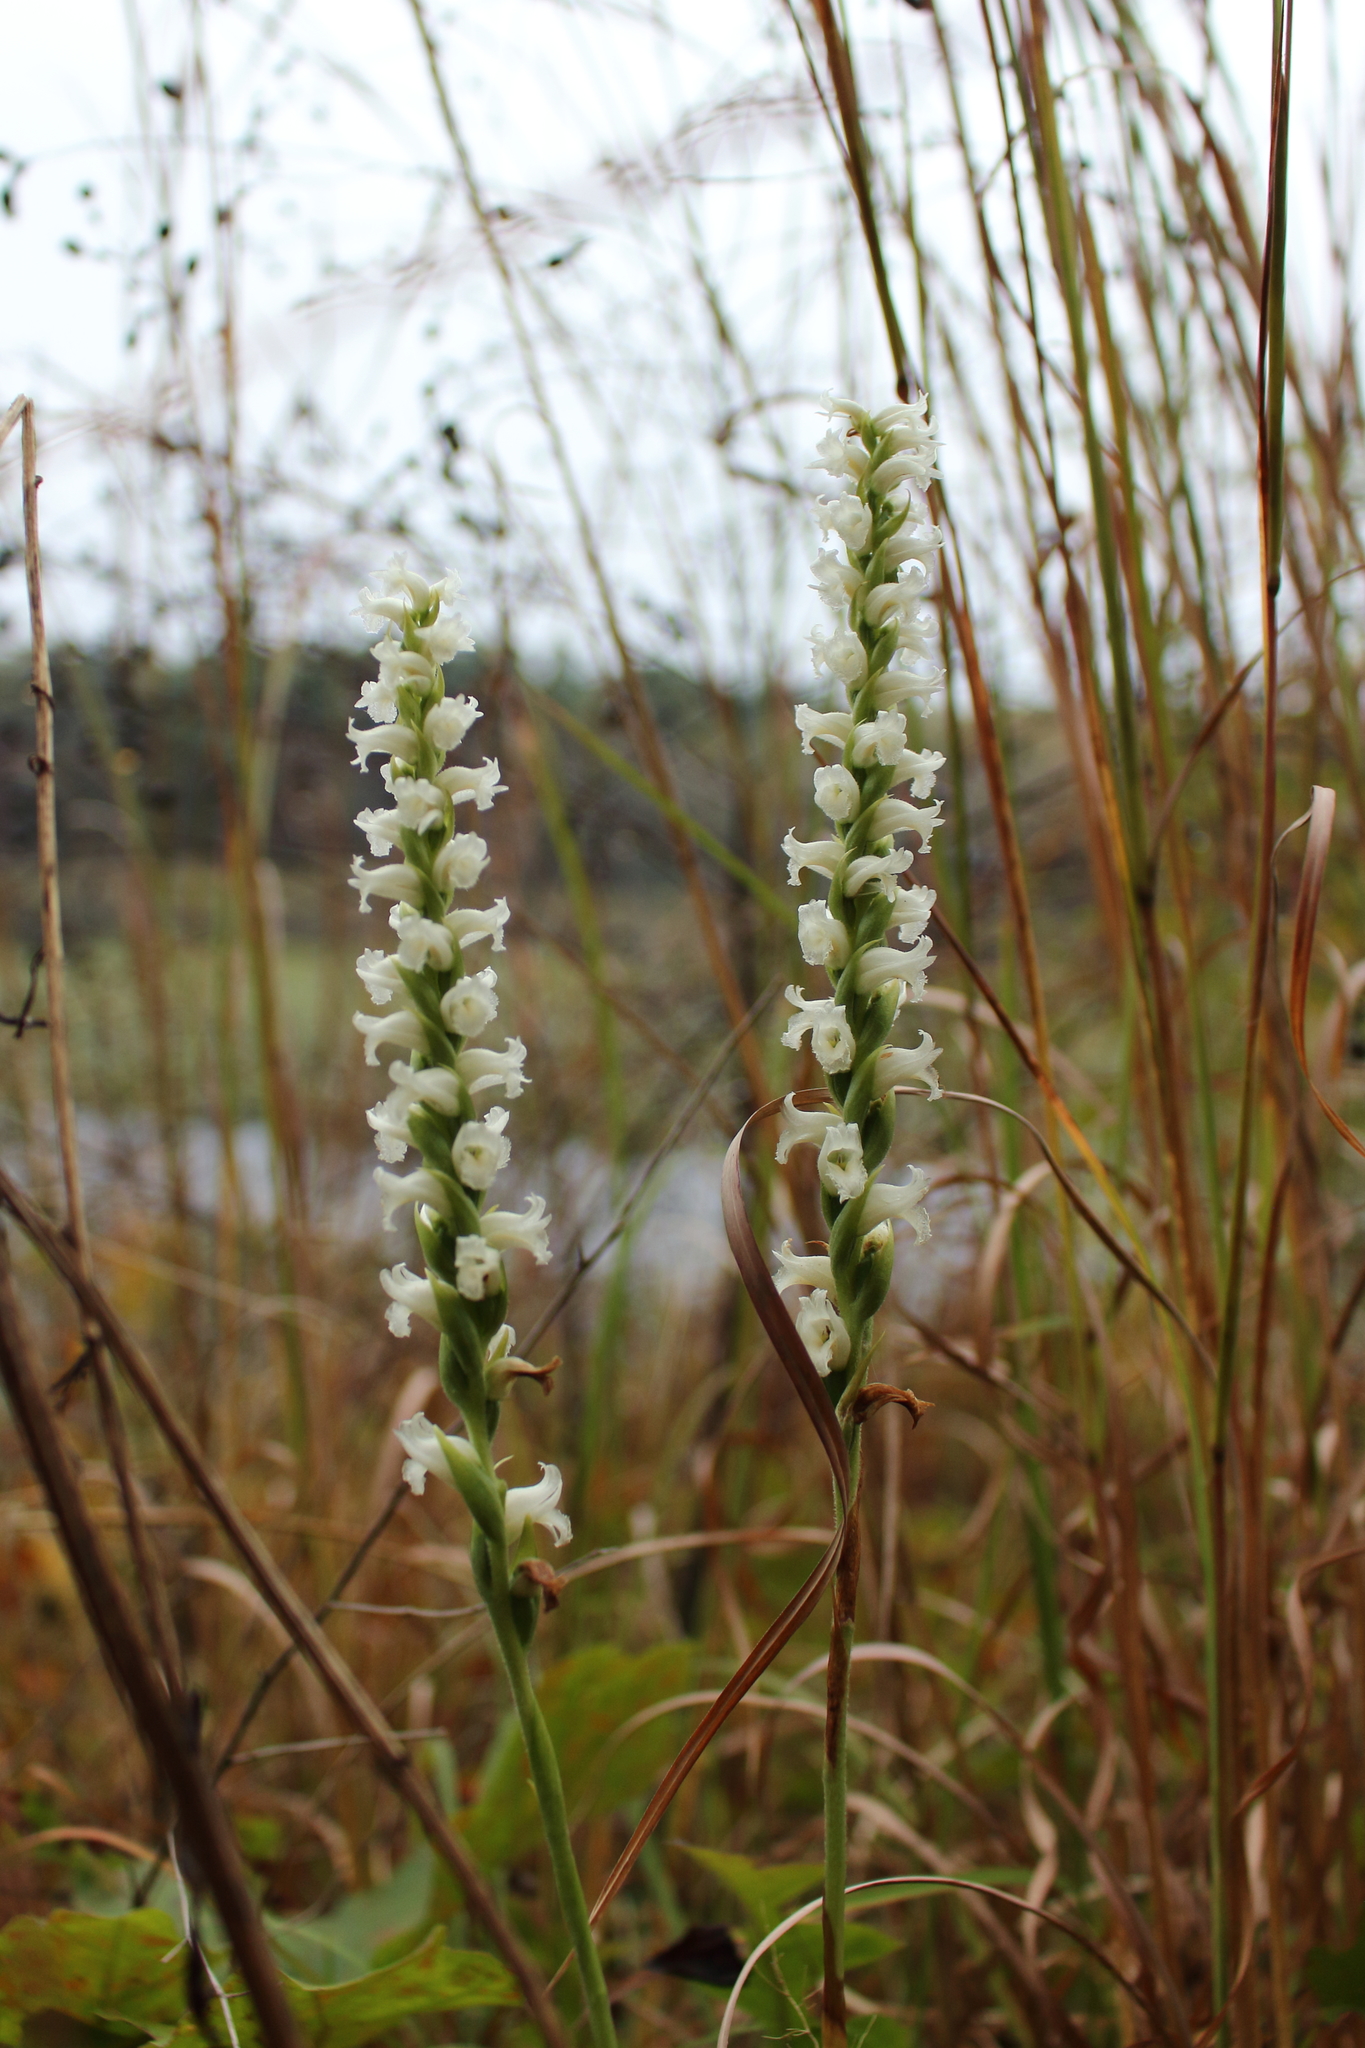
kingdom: Plantae
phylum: Tracheophyta
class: Liliopsida
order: Asparagales
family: Orchidaceae
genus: Spiranthes
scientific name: Spiranthes ochroleuca
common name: Yellow ladies'-tresses
